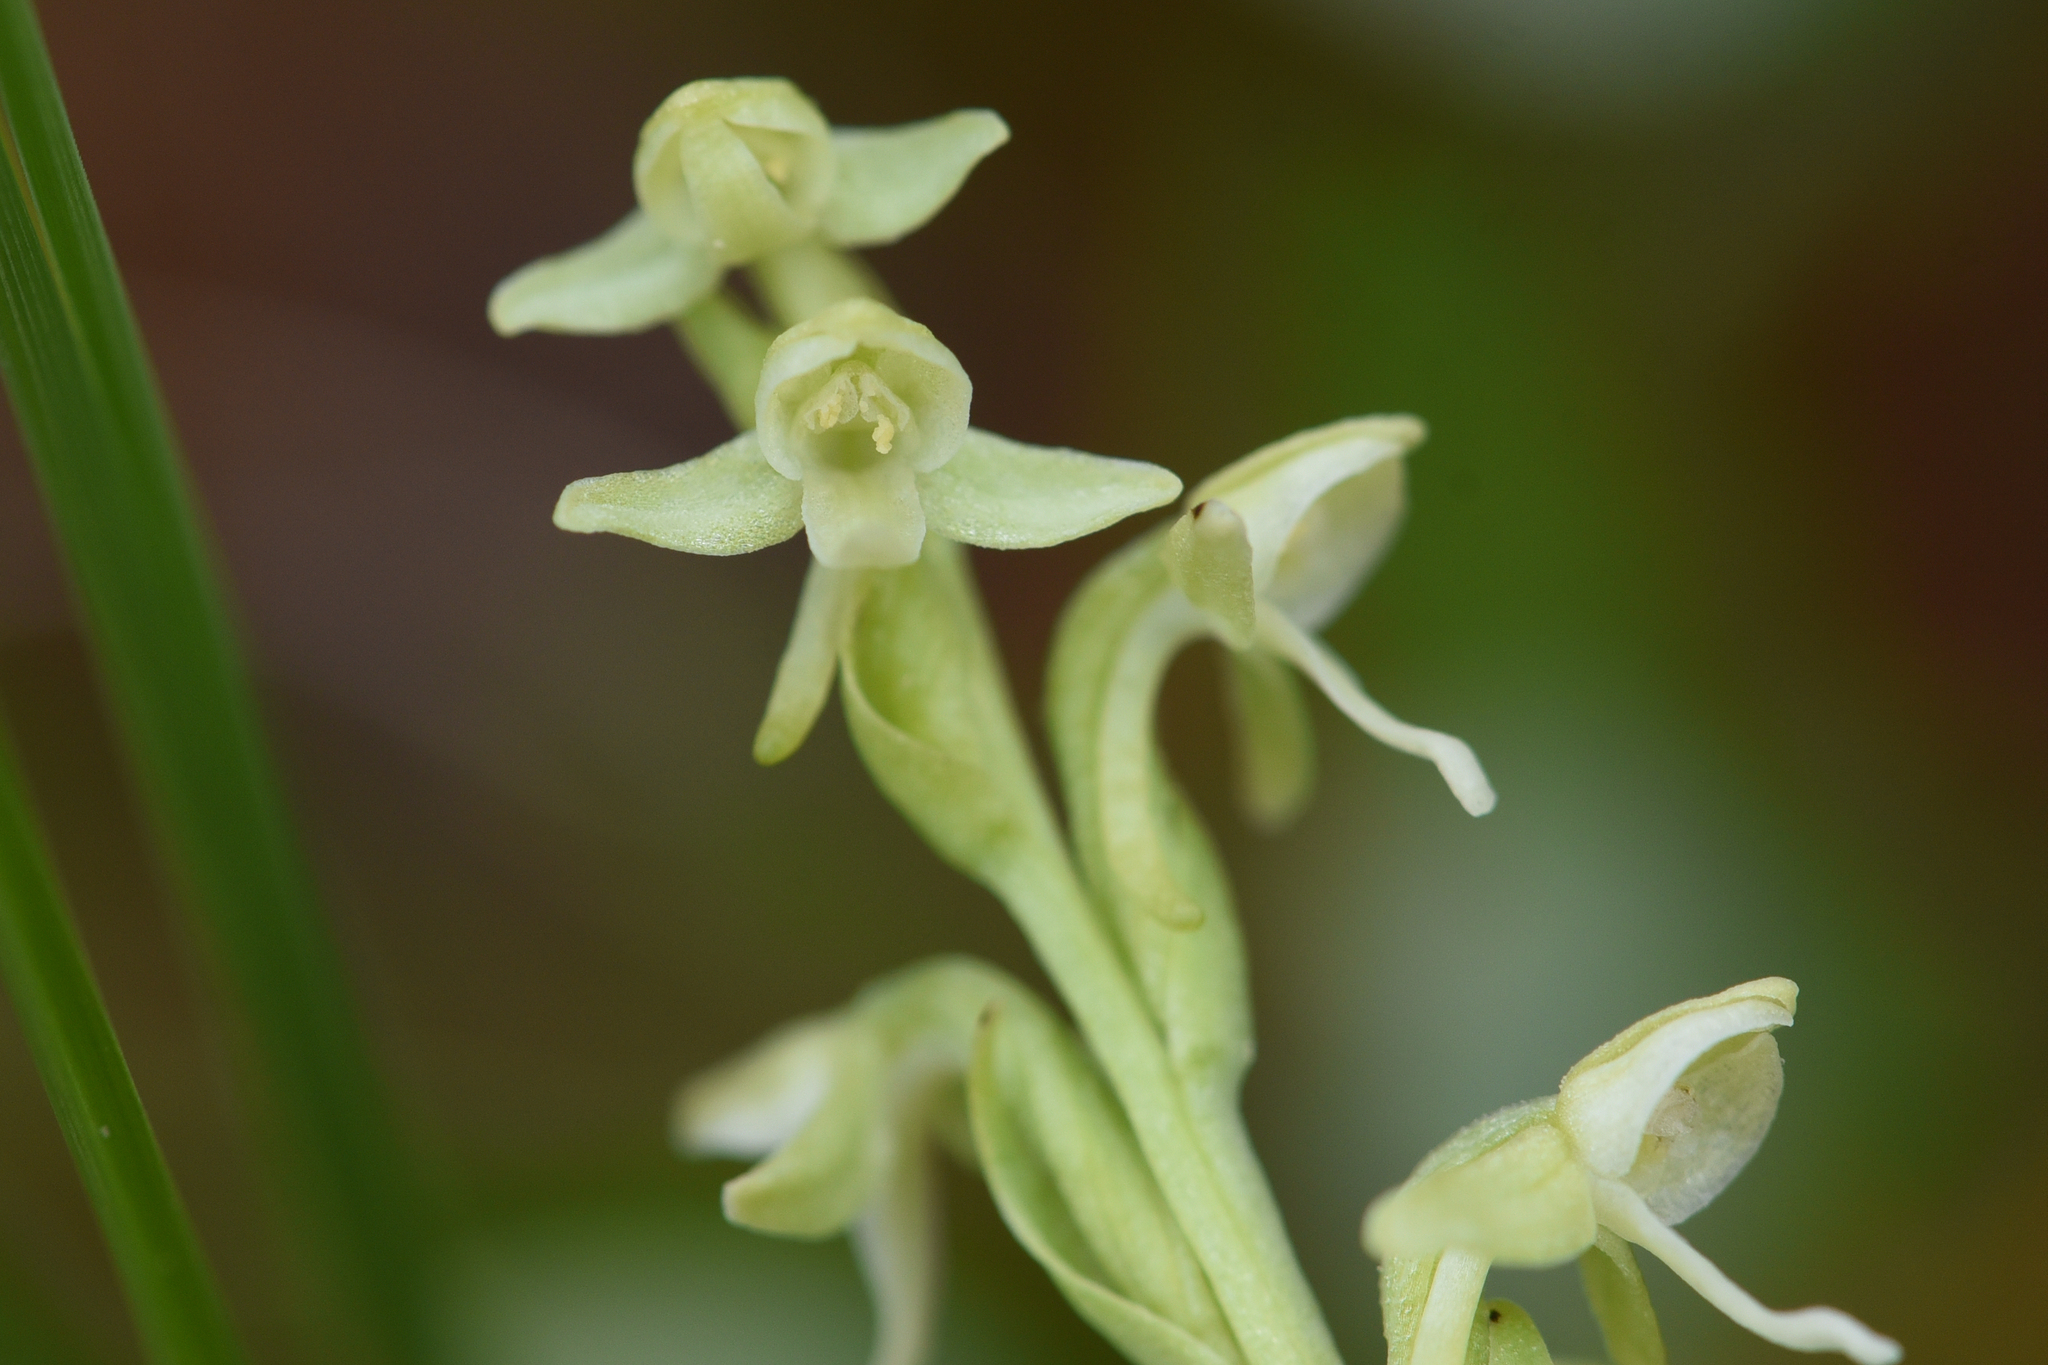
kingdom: Plantae
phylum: Tracheophyta
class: Liliopsida
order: Asparagales
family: Orchidaceae
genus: Platanthera
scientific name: Platanthera huronensis
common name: Fragrant green orchid
